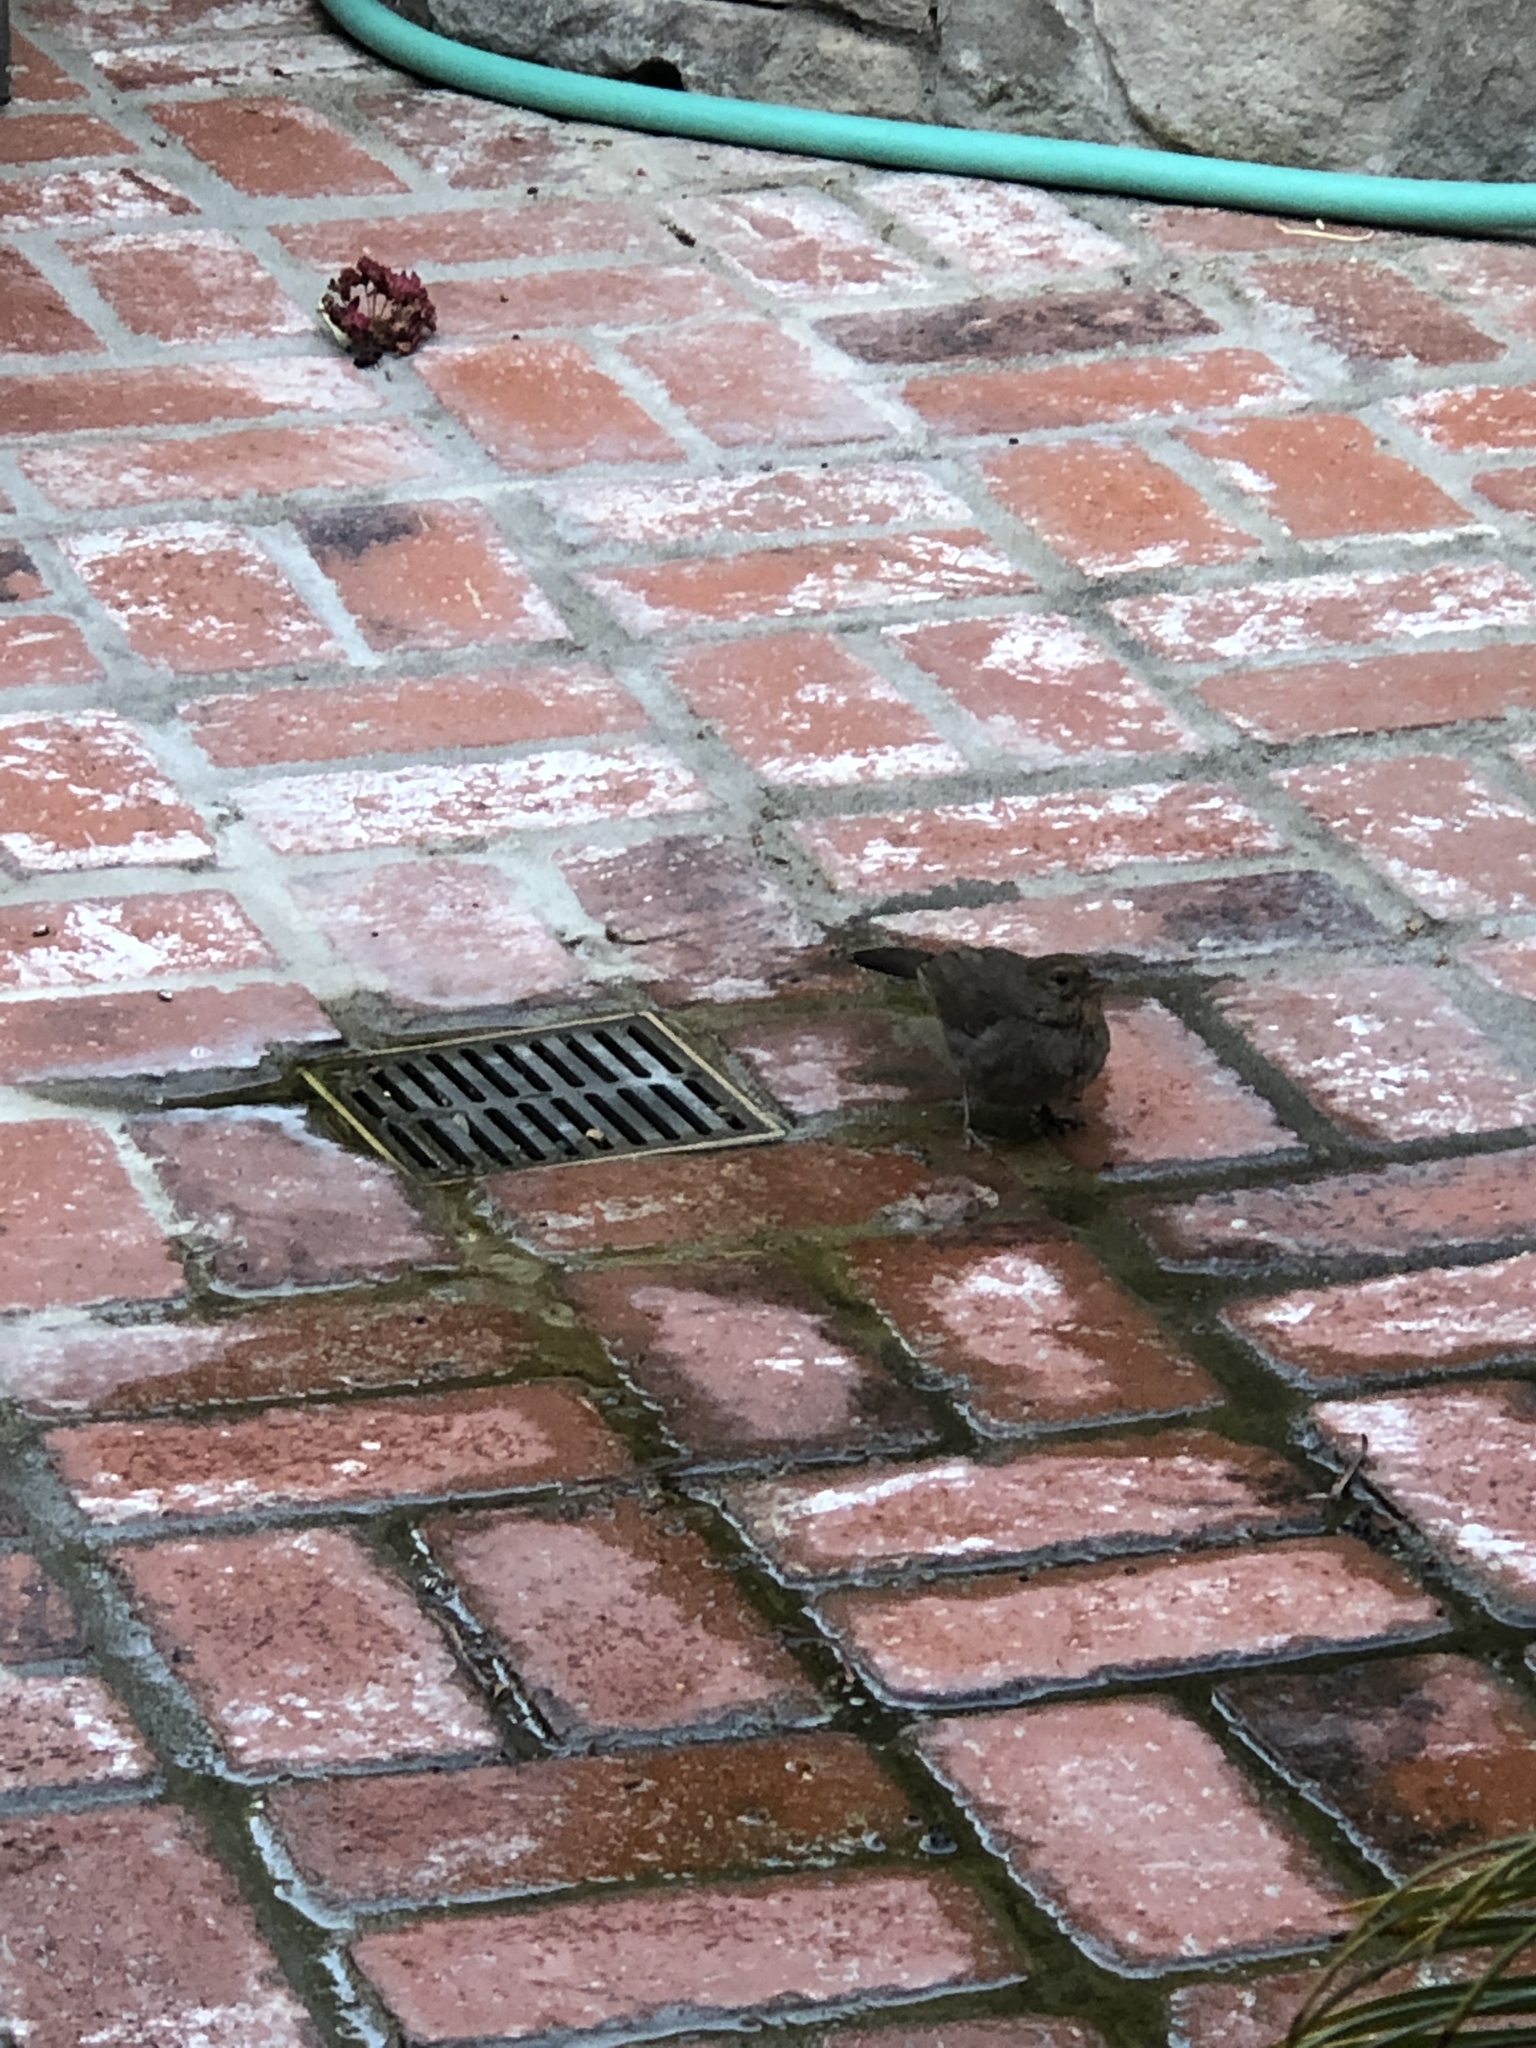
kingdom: Animalia
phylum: Chordata
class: Aves
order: Passeriformes
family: Passeridae
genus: Passer
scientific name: Passer domesticus
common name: House sparrow
